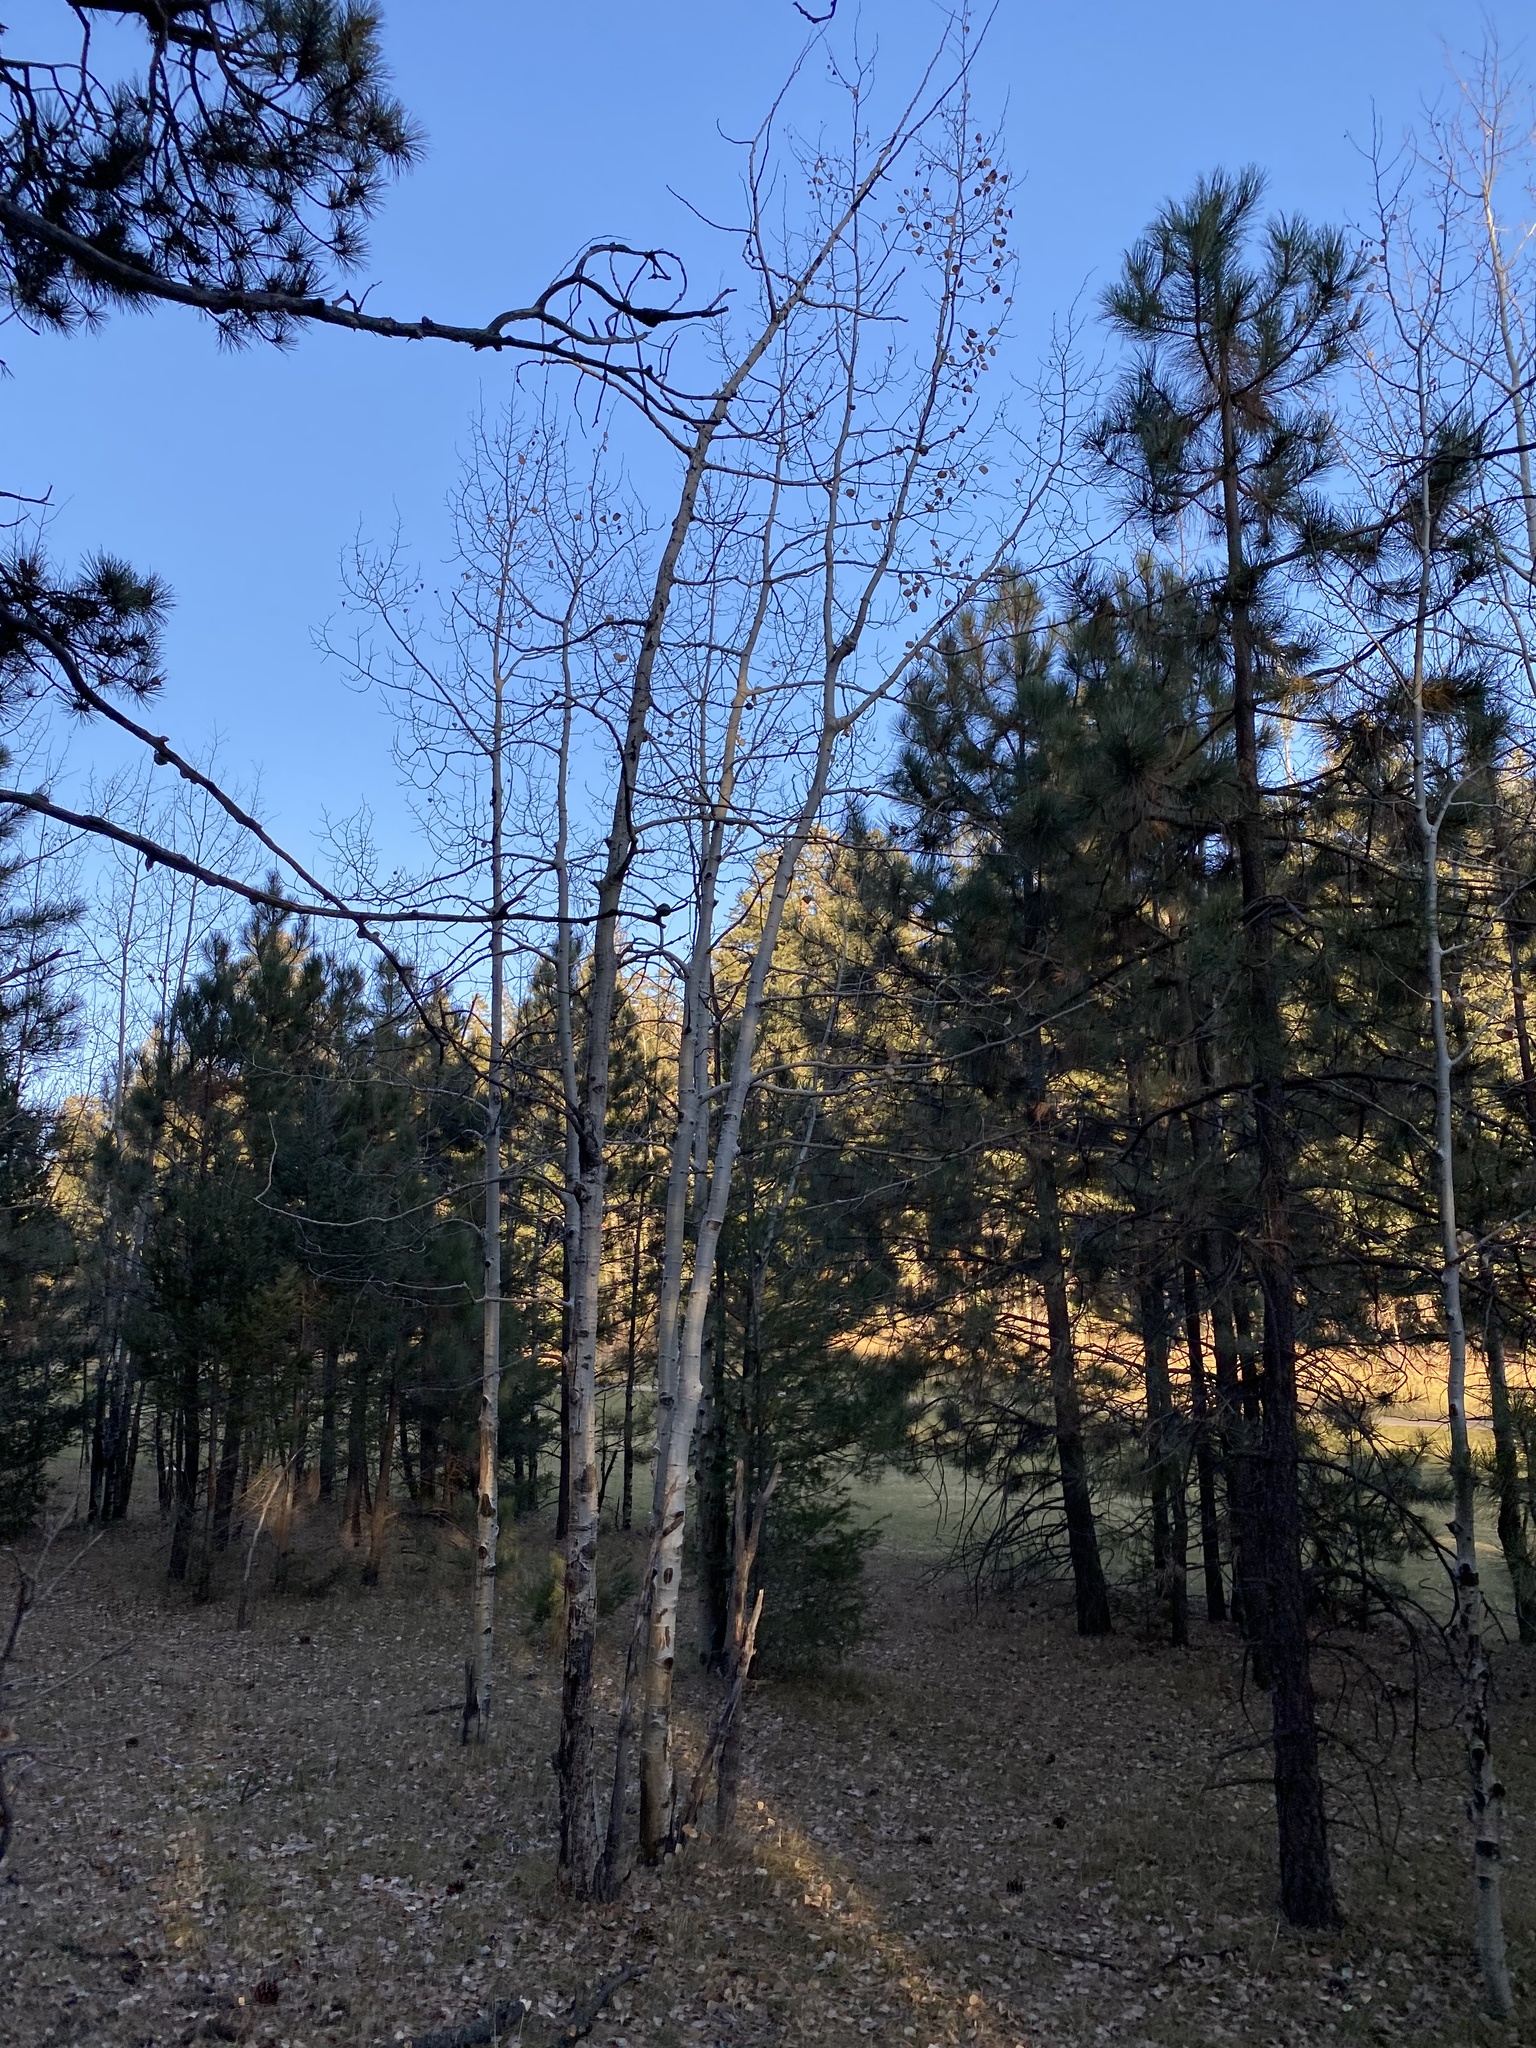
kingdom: Plantae
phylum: Tracheophyta
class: Magnoliopsida
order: Malpighiales
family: Salicaceae
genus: Populus
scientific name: Populus tremuloides
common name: Quaking aspen
